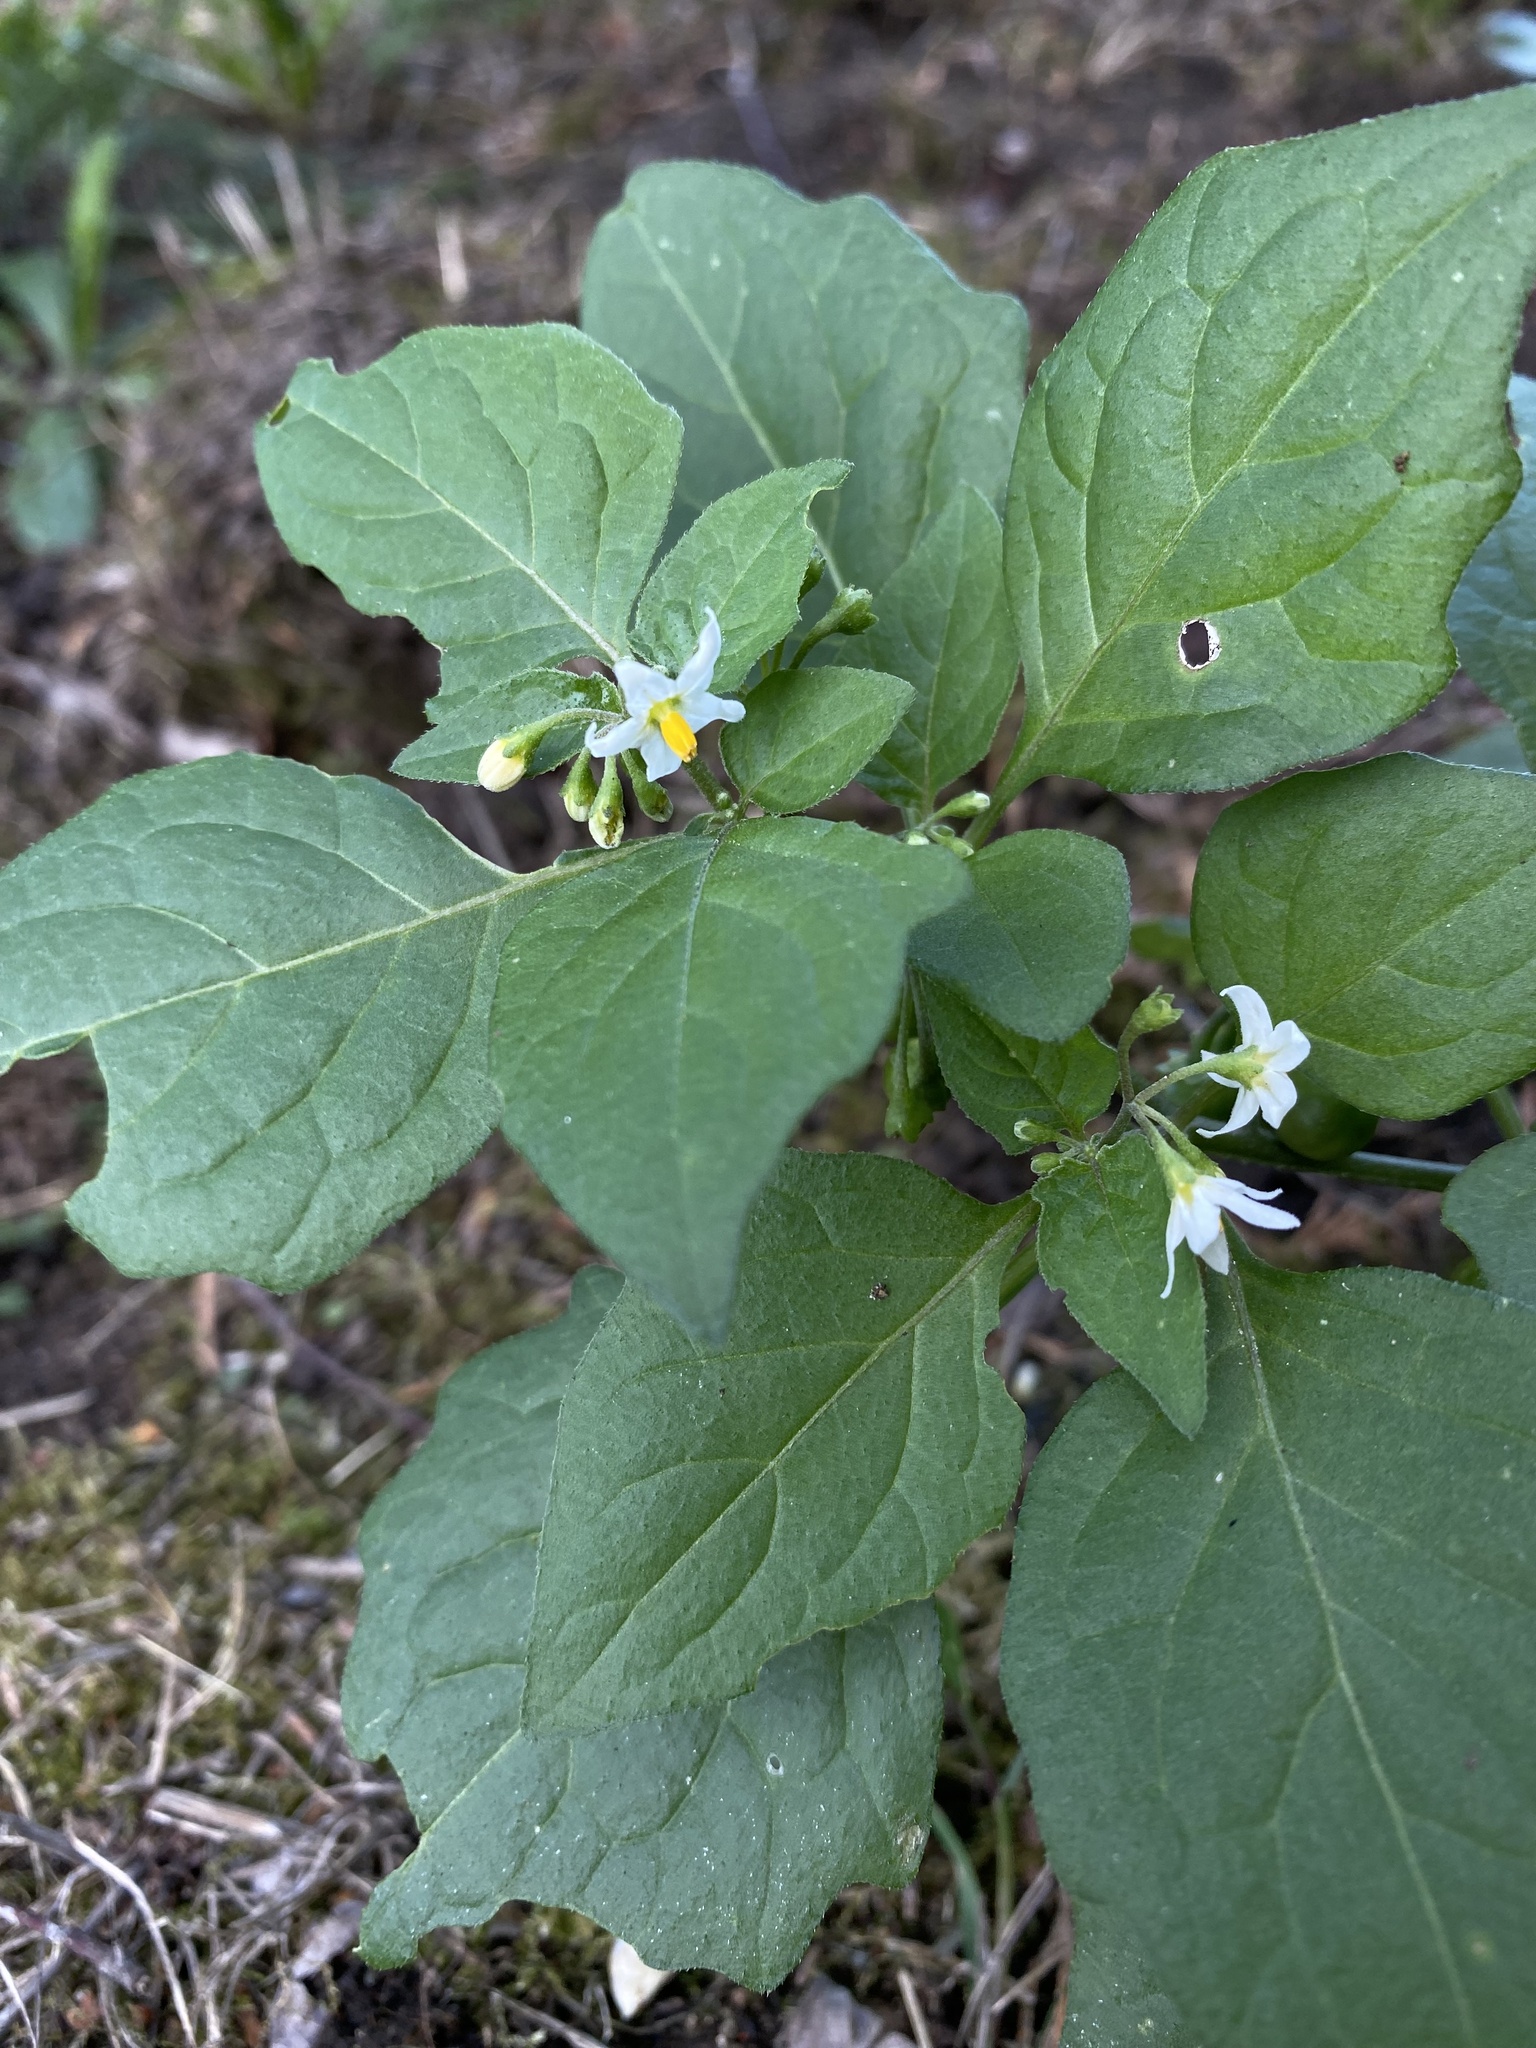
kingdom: Plantae
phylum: Tracheophyta
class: Magnoliopsida
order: Solanales
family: Solanaceae
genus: Solanum
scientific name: Solanum nigrum
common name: Black nightshade
